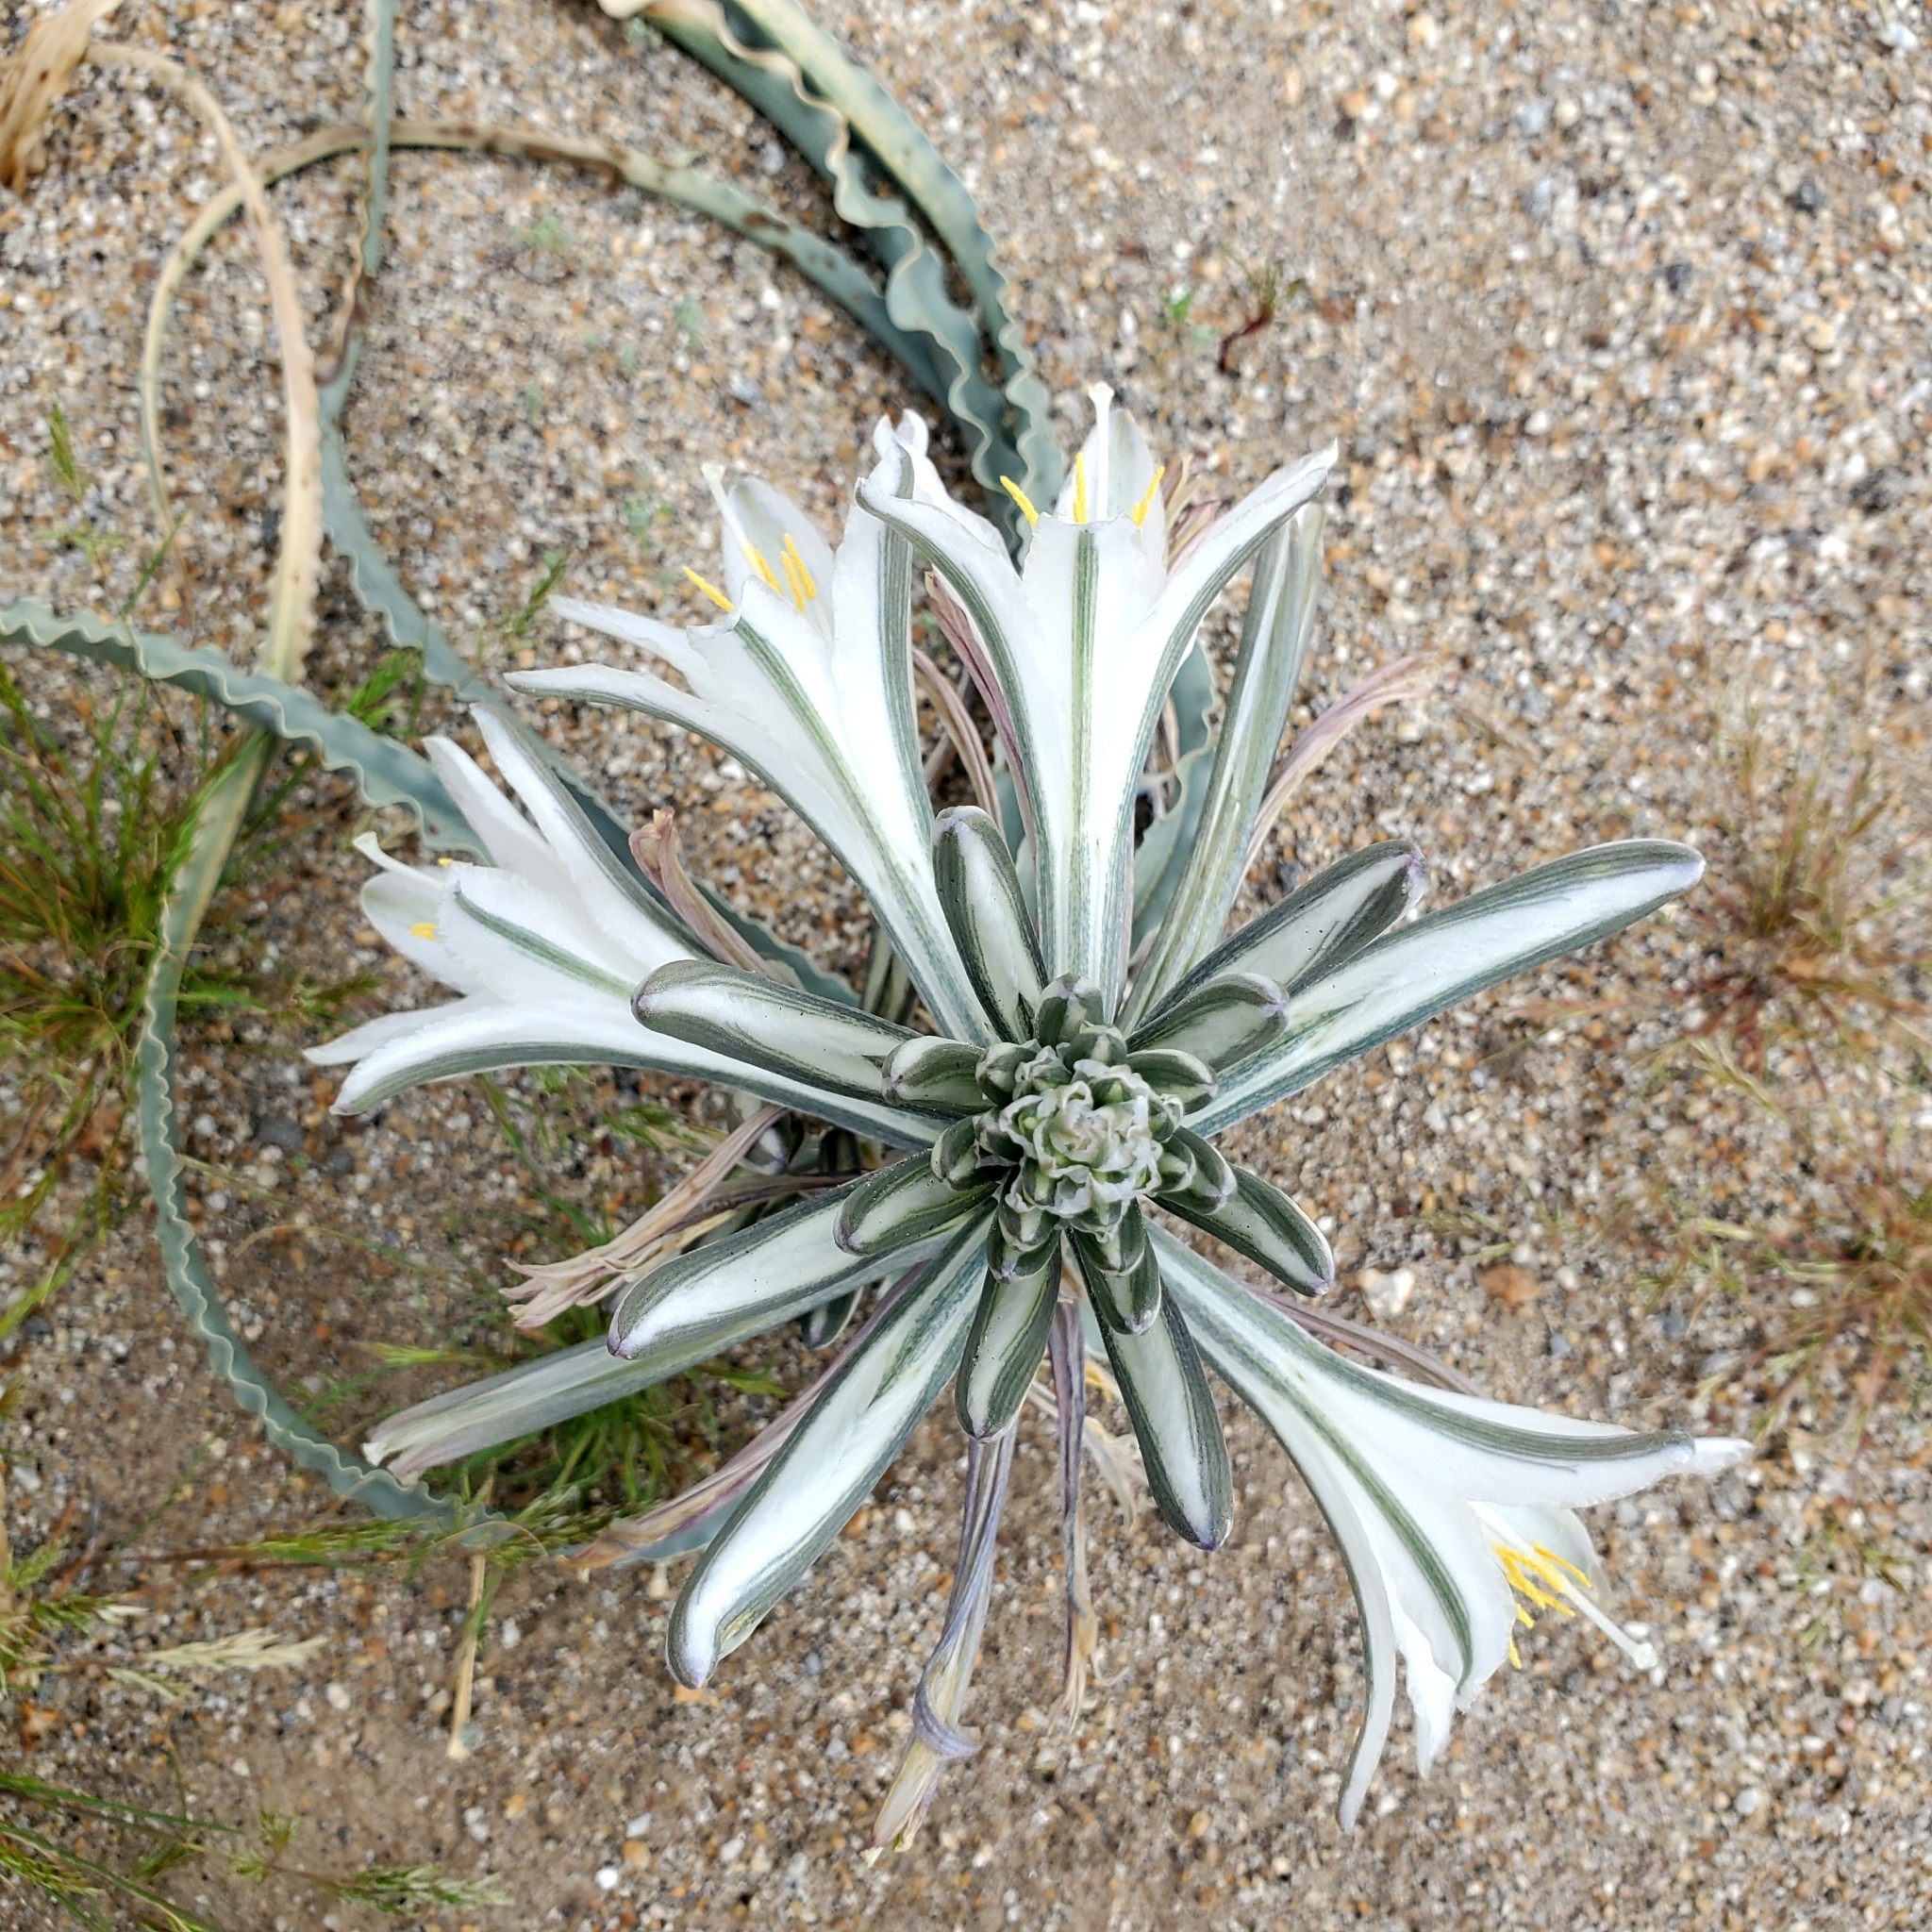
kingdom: Plantae
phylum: Tracheophyta
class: Liliopsida
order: Asparagales
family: Asparagaceae
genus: Hesperocallis
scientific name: Hesperocallis undulata
